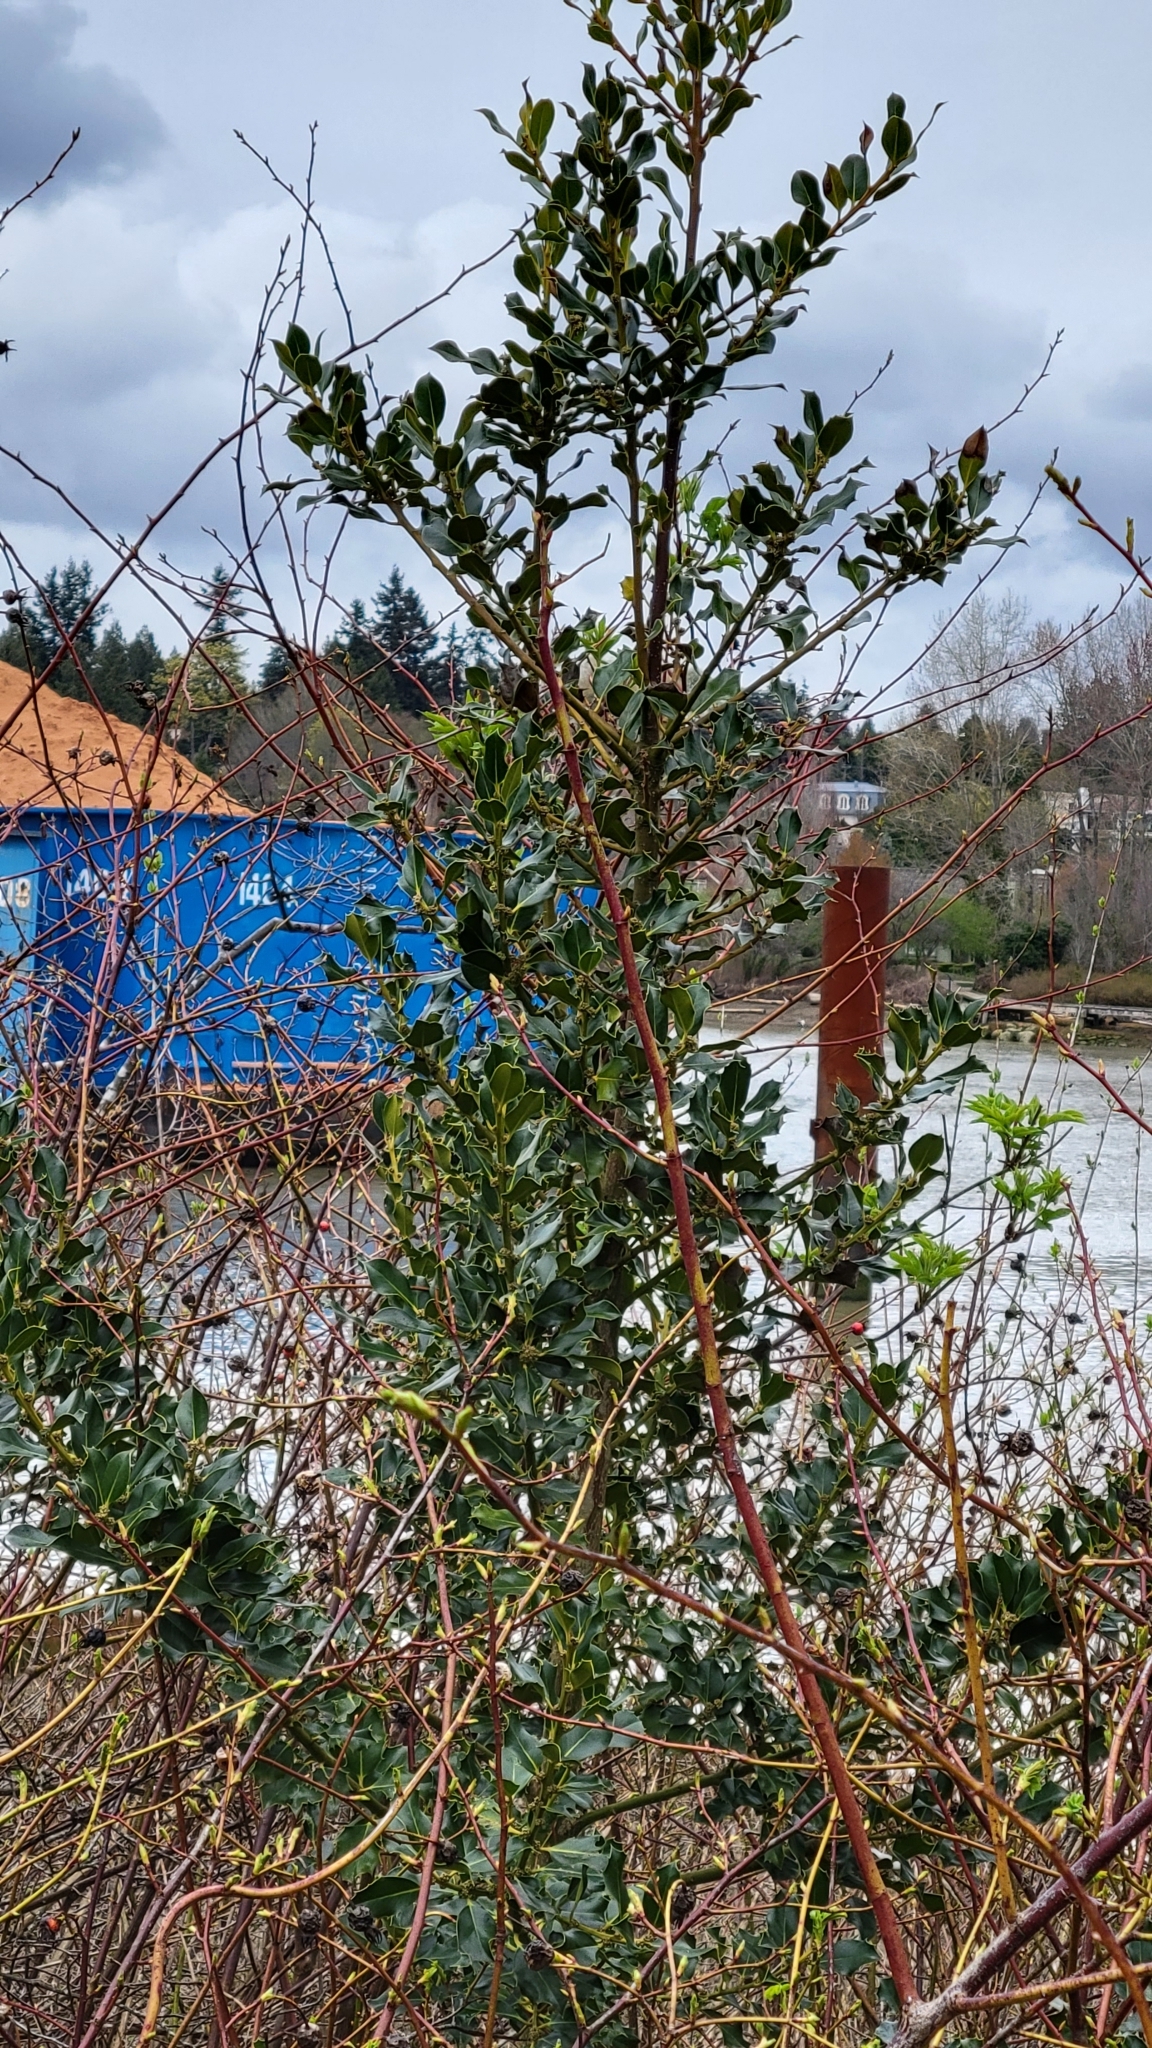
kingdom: Plantae
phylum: Tracheophyta
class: Magnoliopsida
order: Aquifoliales
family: Aquifoliaceae
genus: Ilex
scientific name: Ilex aquifolium
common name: English holly
